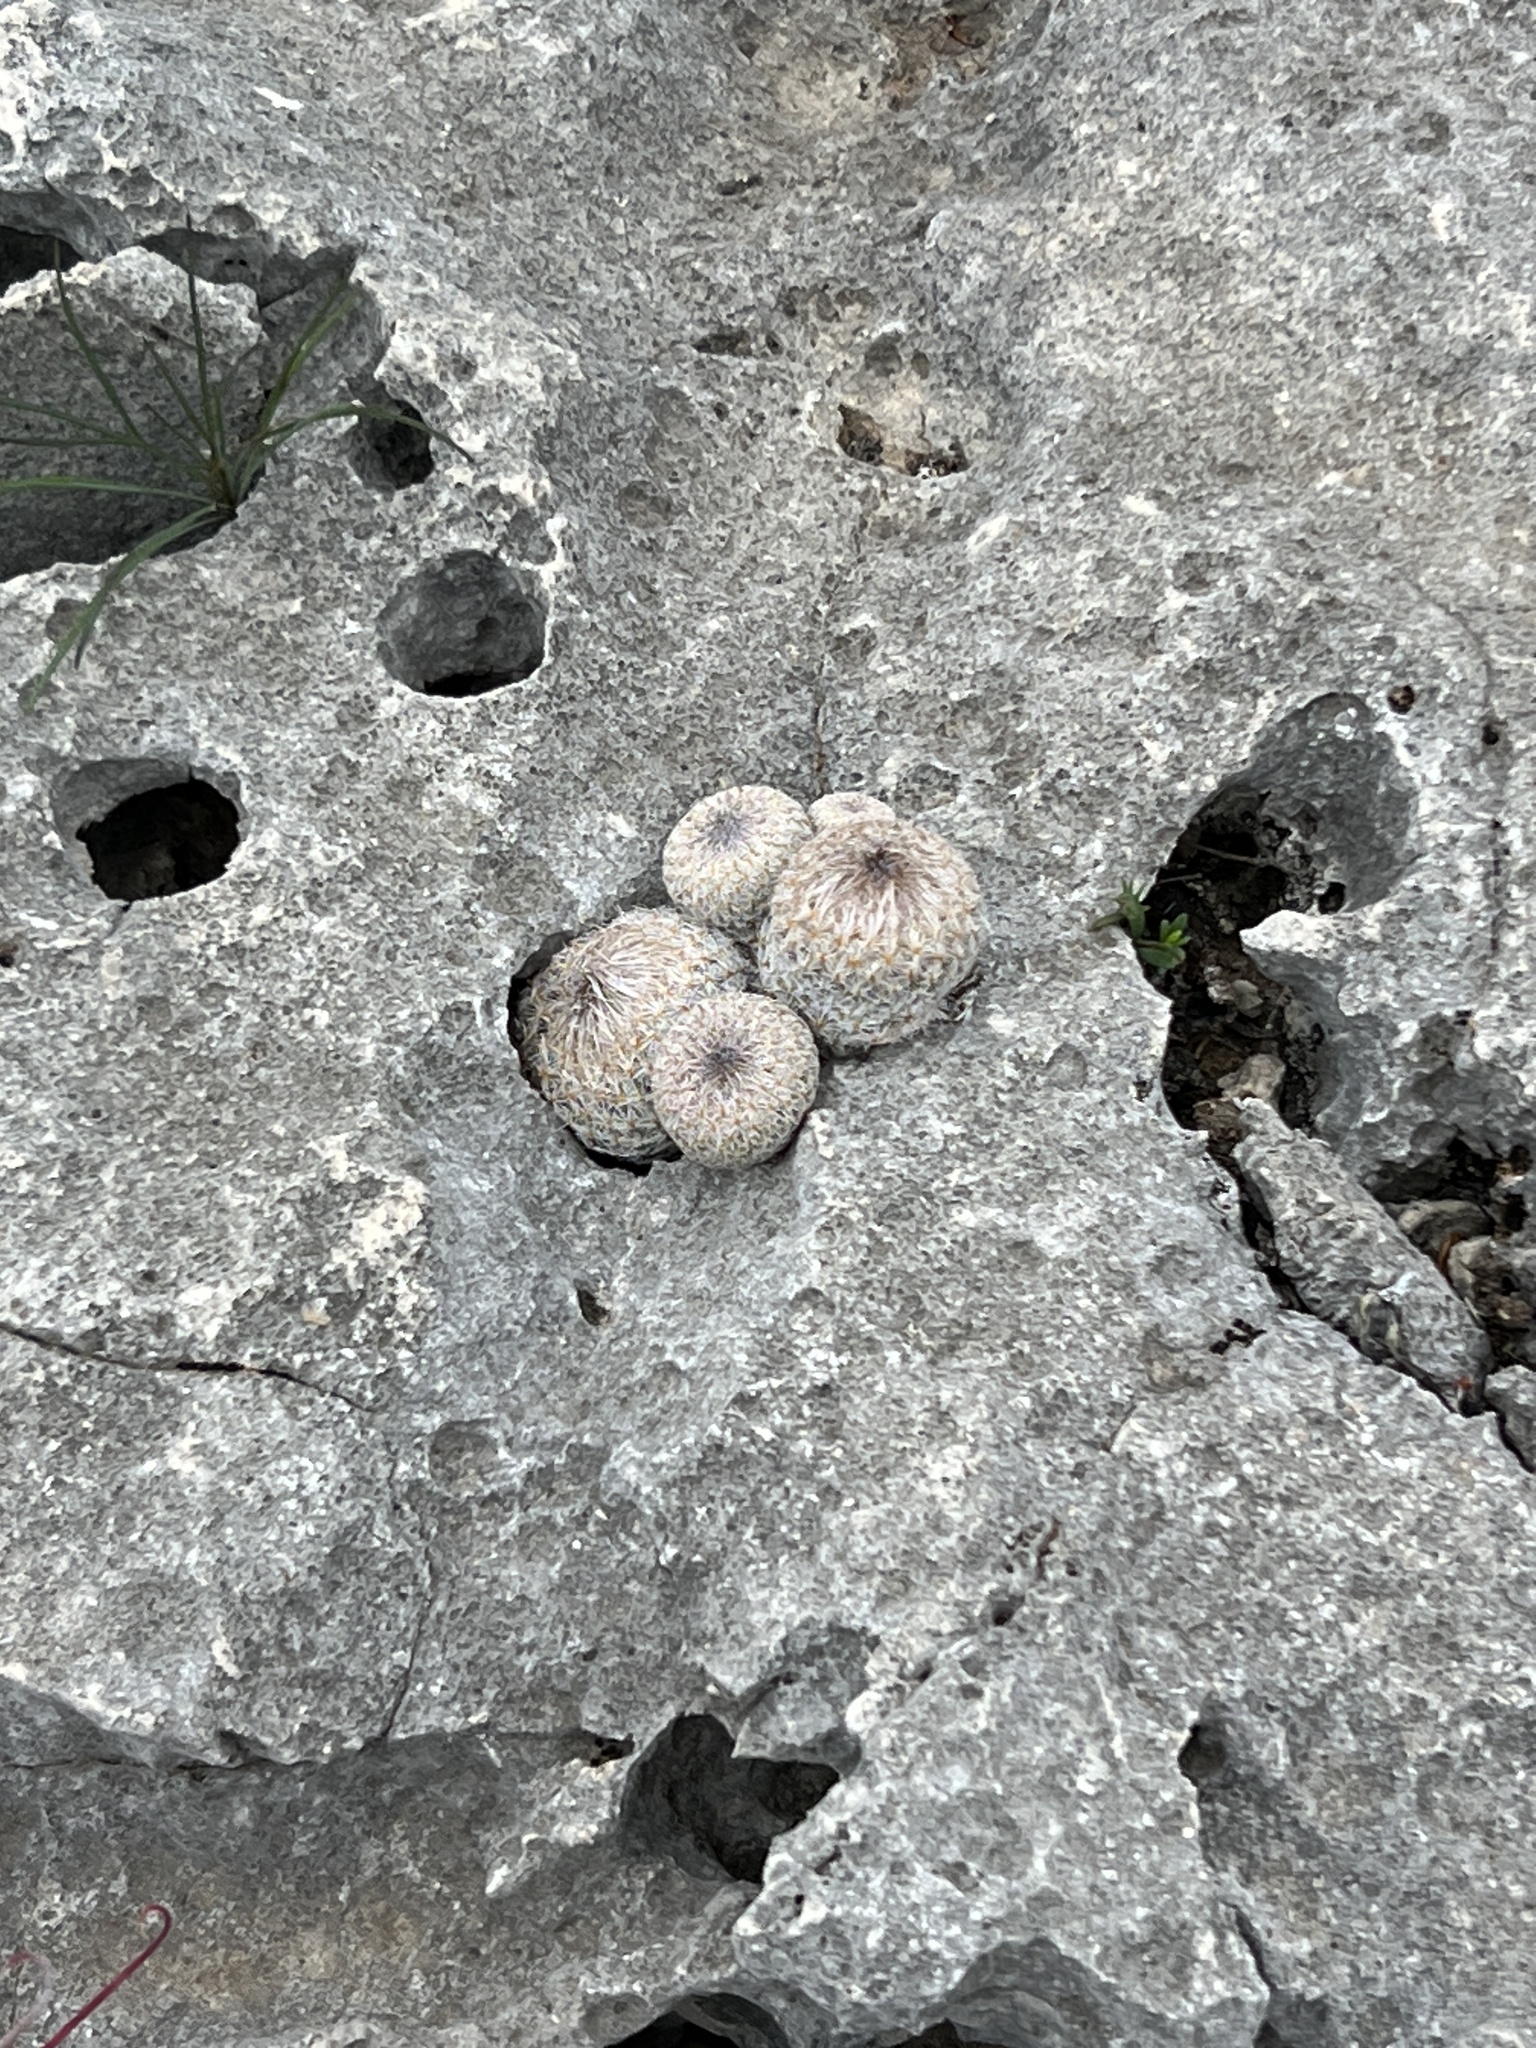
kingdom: Plantae
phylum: Tracheophyta
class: Magnoliopsida
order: Caryophyllales
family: Cactaceae
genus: Epithelantha
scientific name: Epithelantha micromeris
